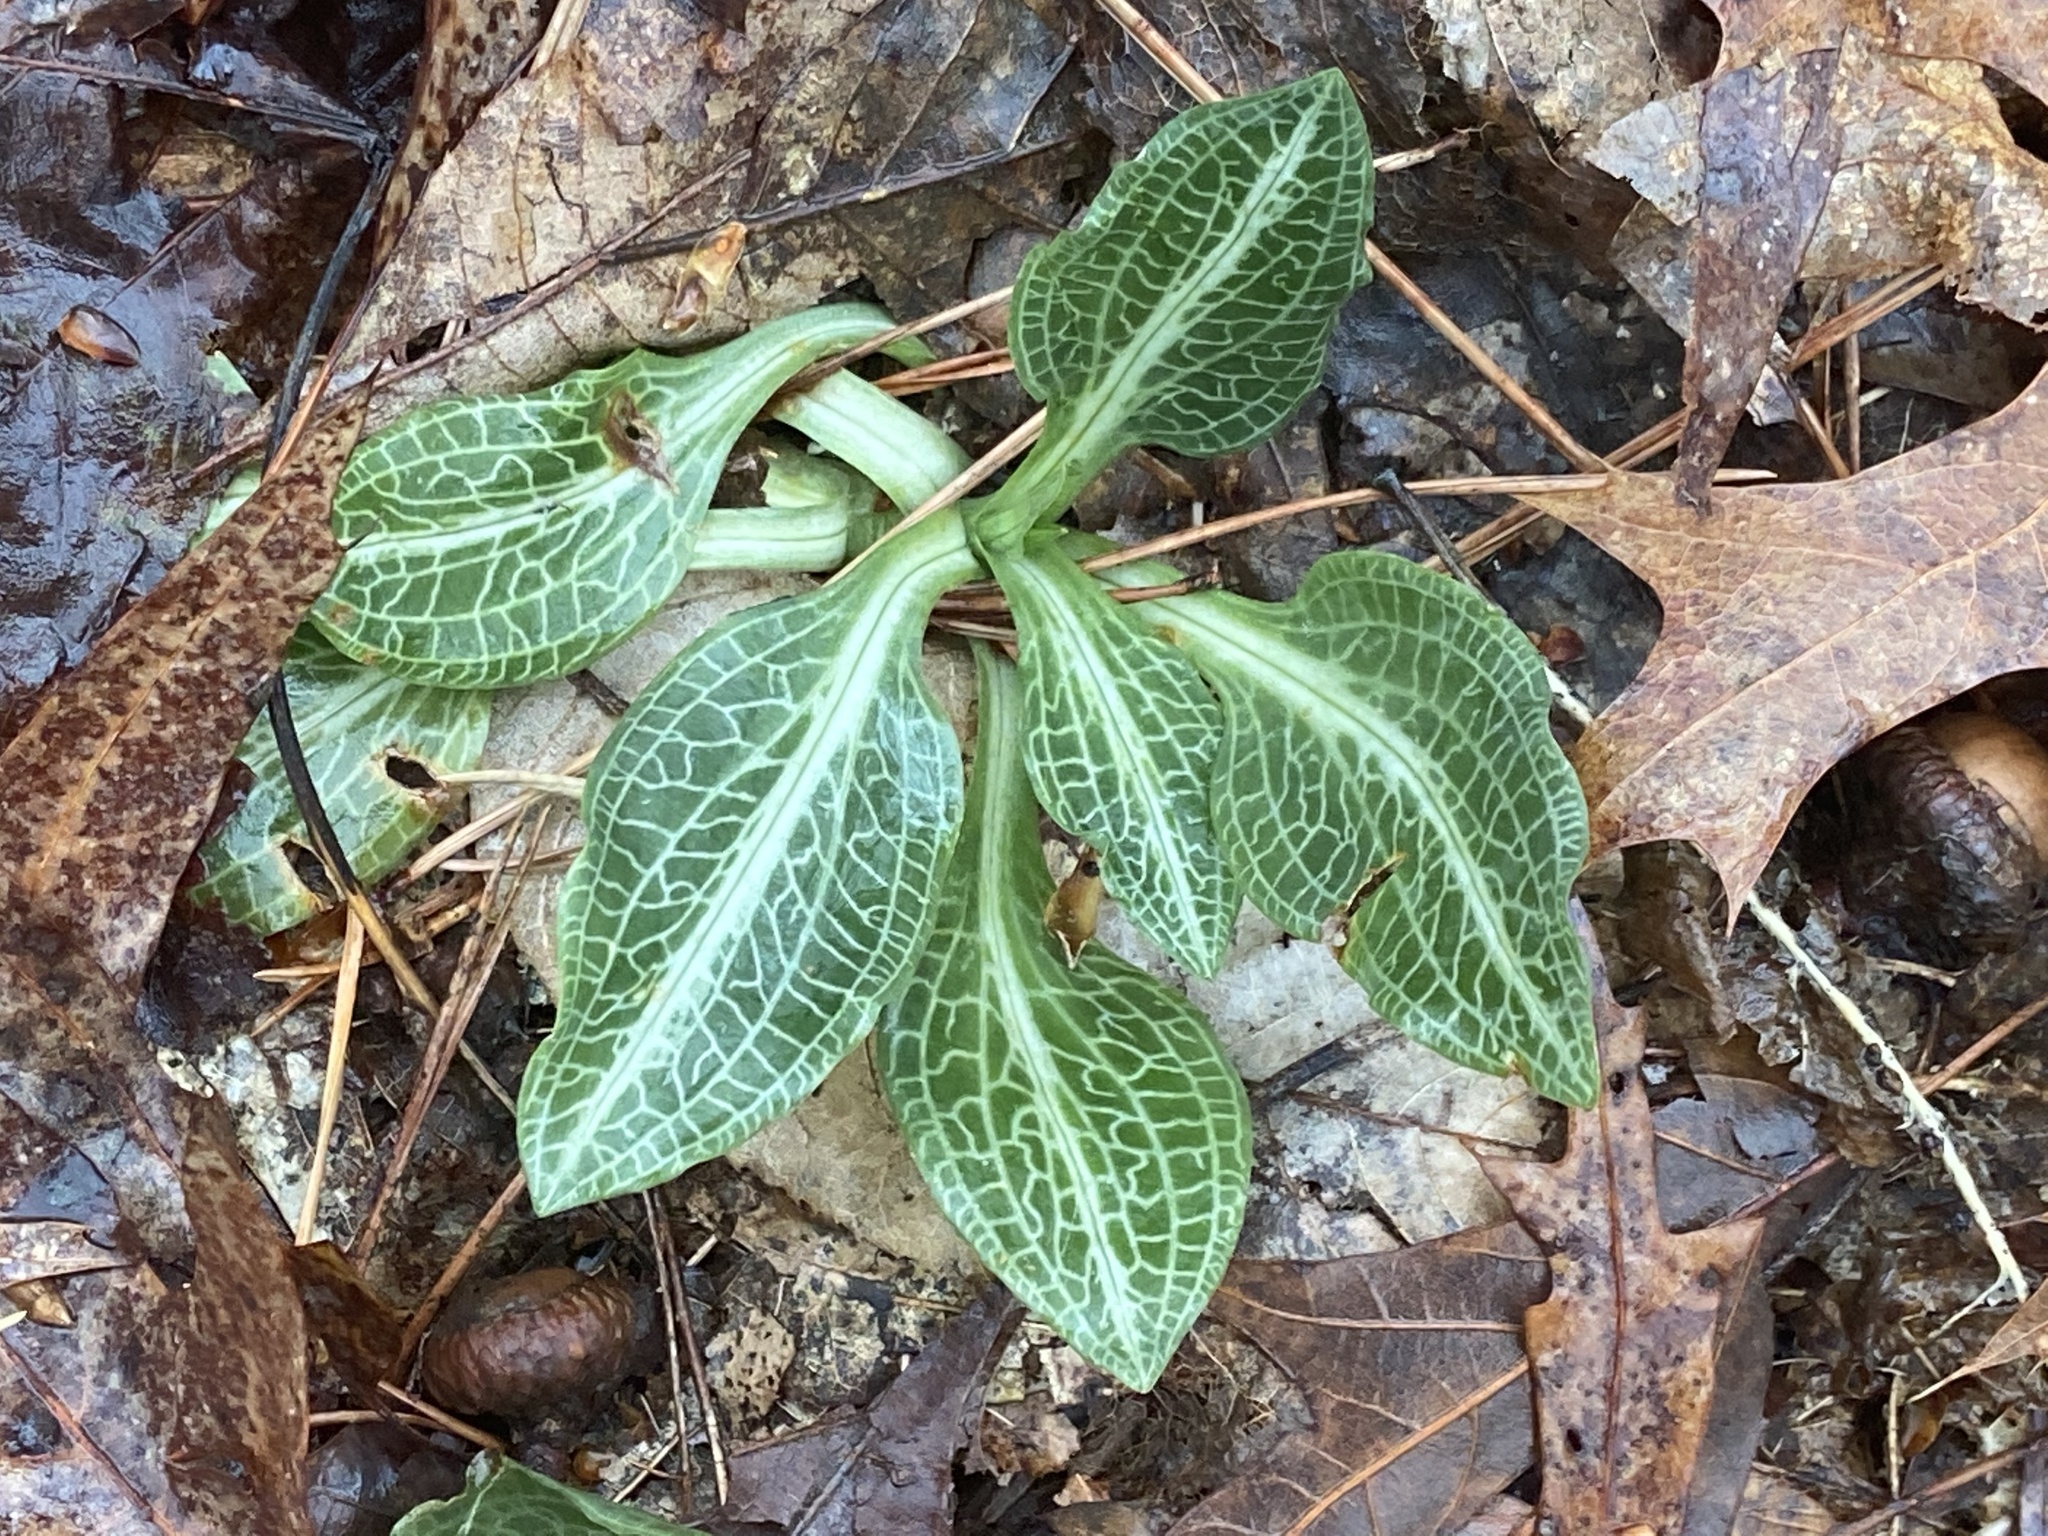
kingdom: Plantae
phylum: Tracheophyta
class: Liliopsida
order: Asparagales
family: Orchidaceae
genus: Goodyera
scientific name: Goodyera pubescens
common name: Downy rattlesnake-plantain
